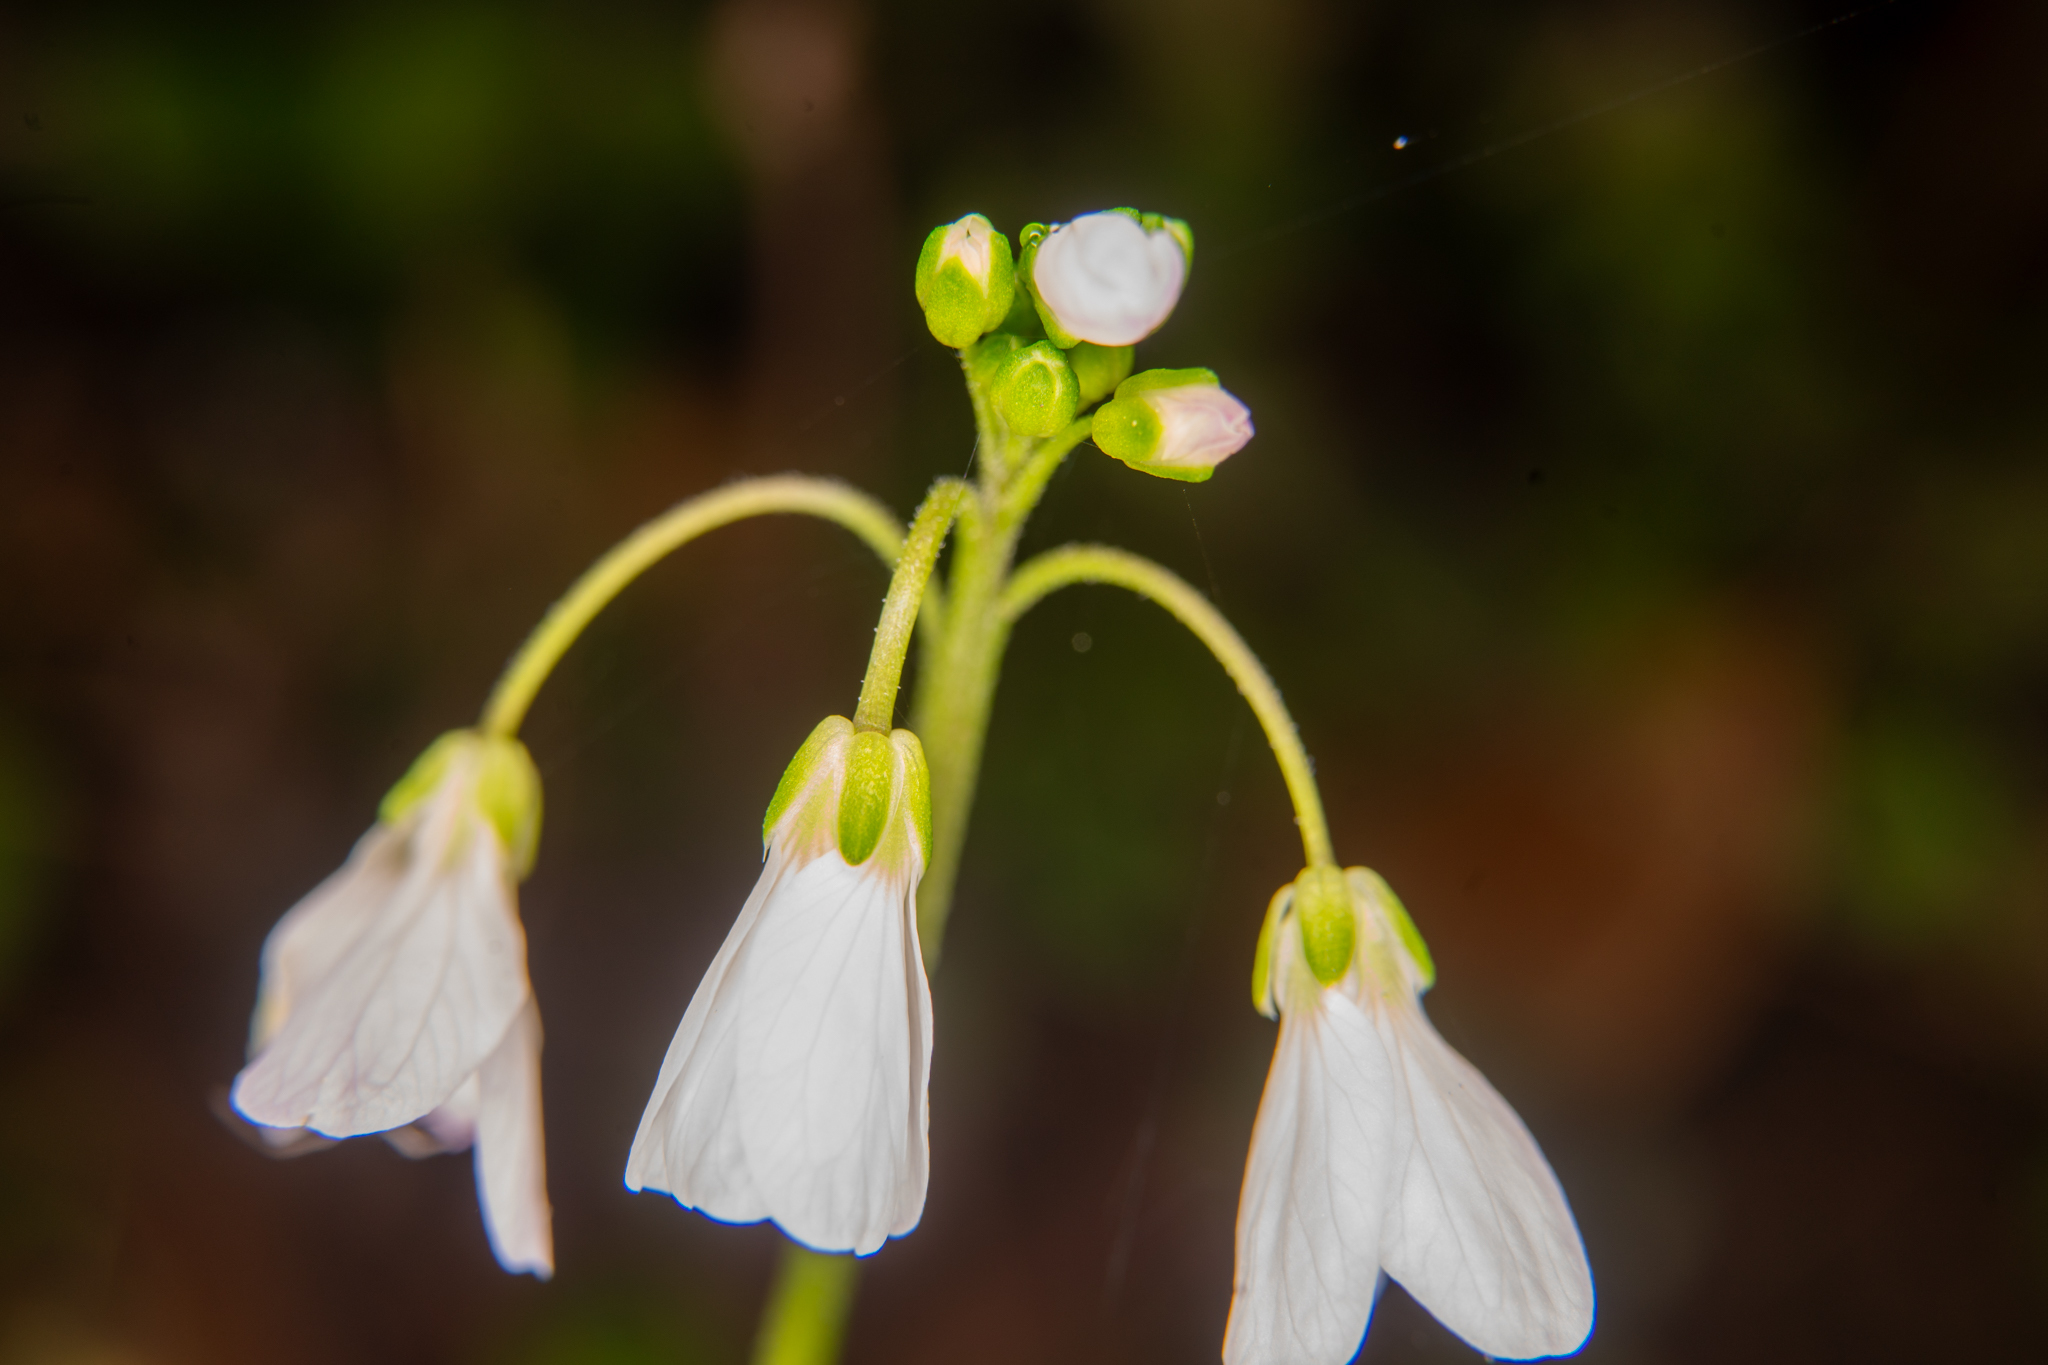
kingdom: Plantae
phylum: Tracheophyta
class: Magnoliopsida
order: Brassicales
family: Brassicaceae
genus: Cardamine
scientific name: Cardamine californica
